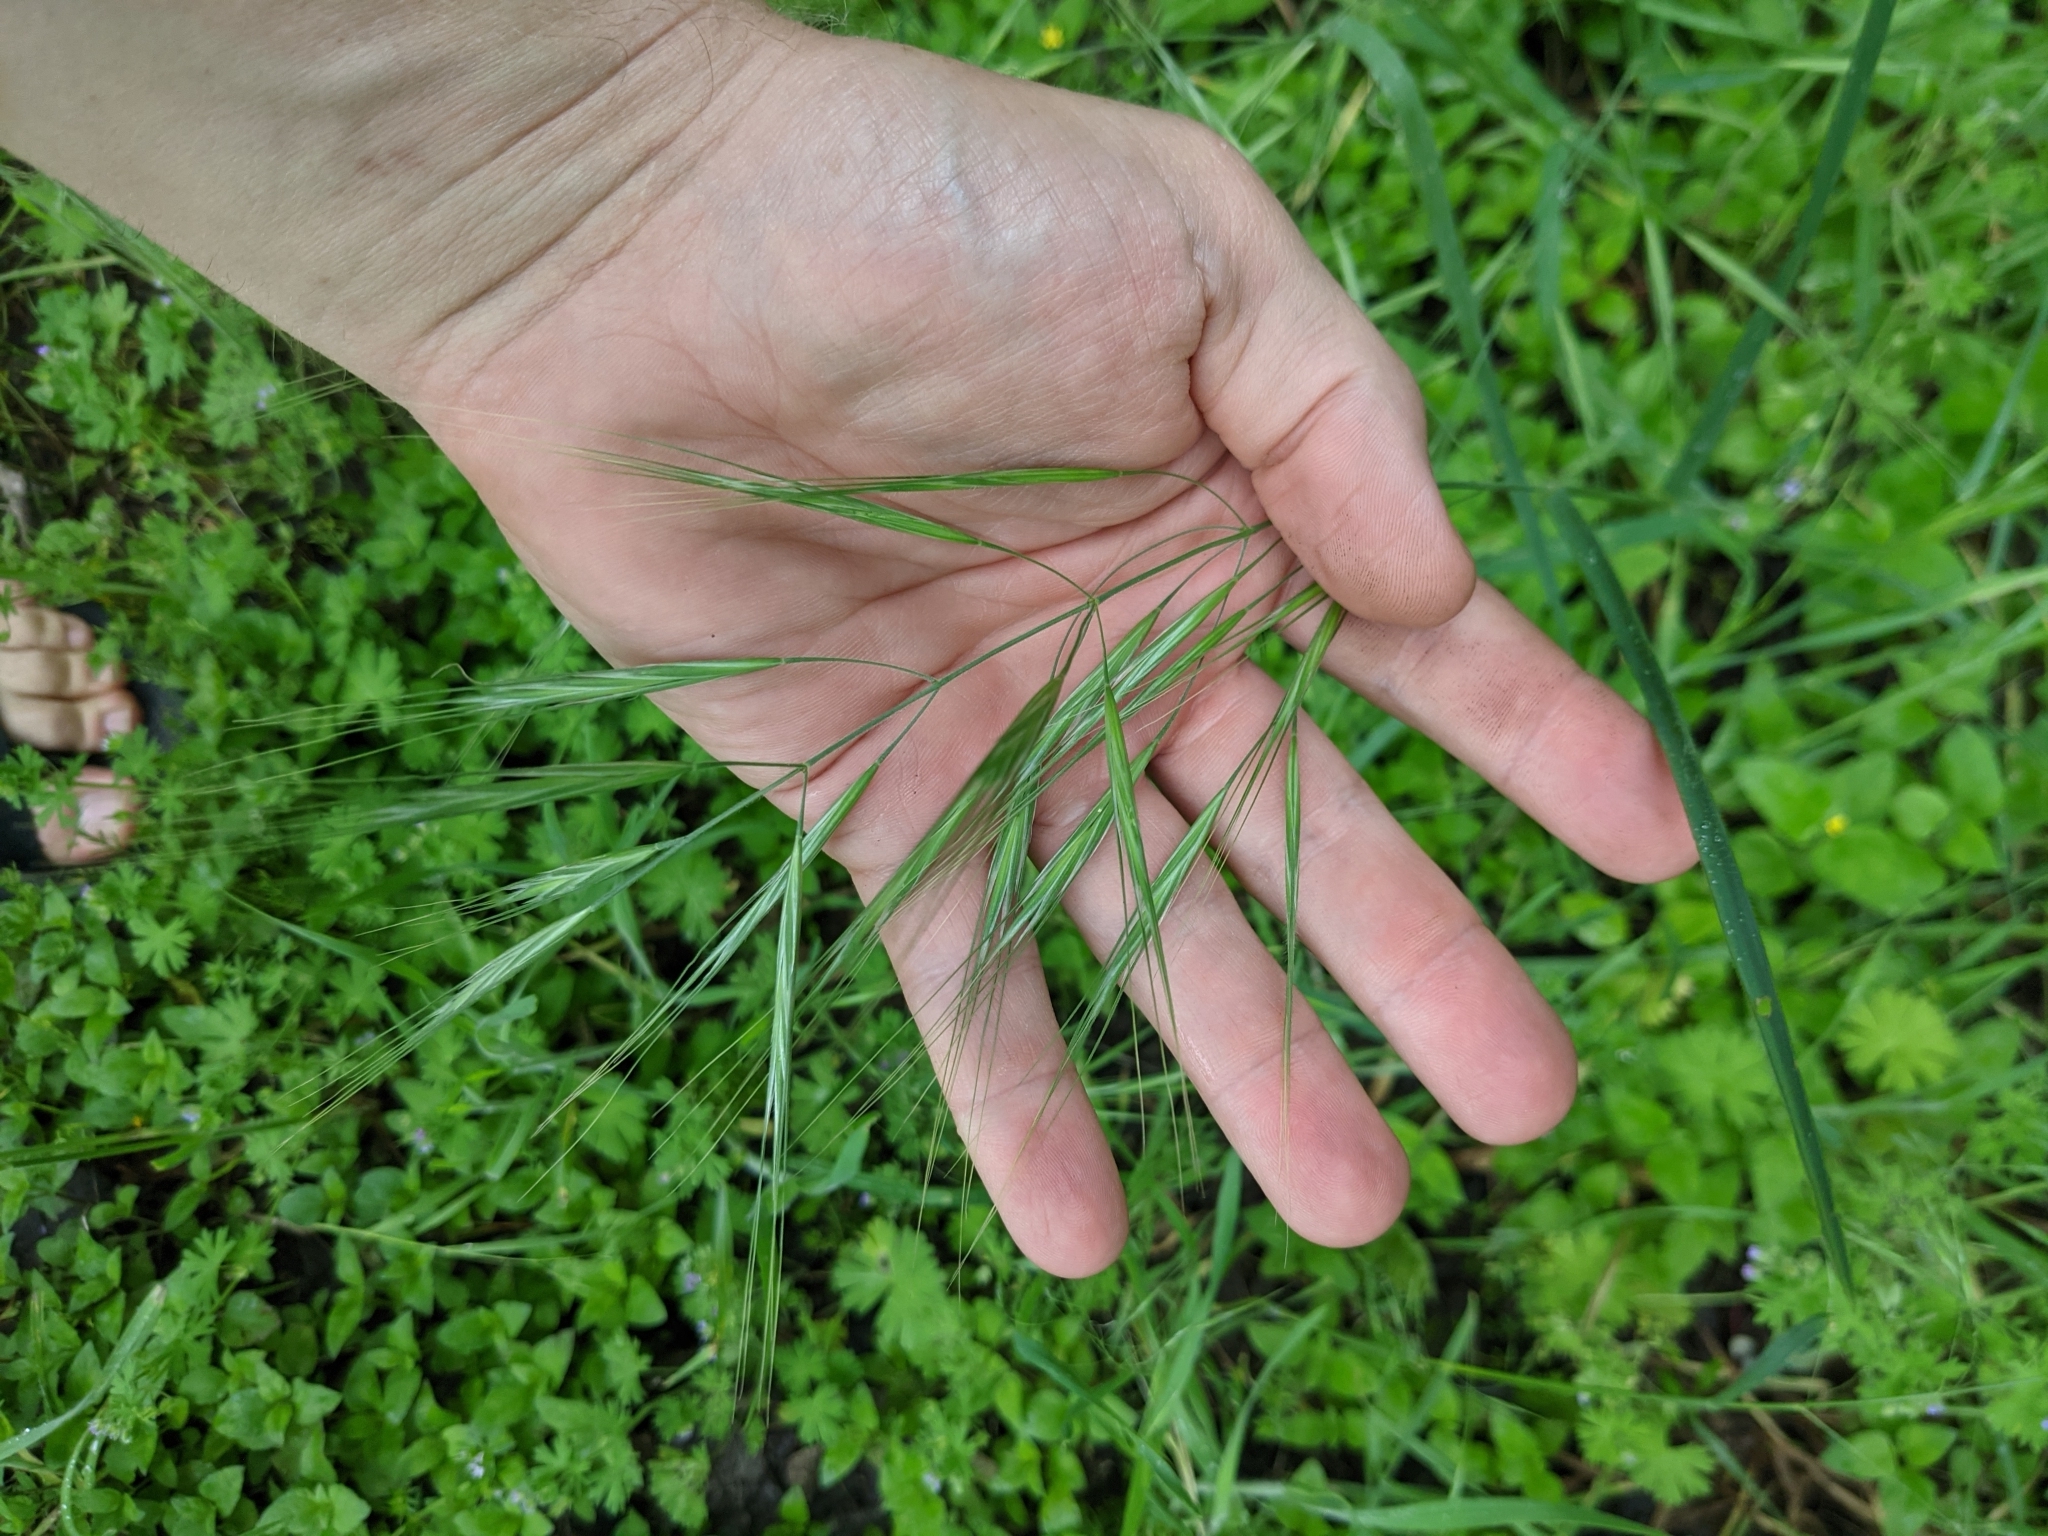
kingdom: Plantae
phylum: Tracheophyta
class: Liliopsida
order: Poales
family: Poaceae
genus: Bromus
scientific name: Bromus diandrus
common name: Ripgut brome
